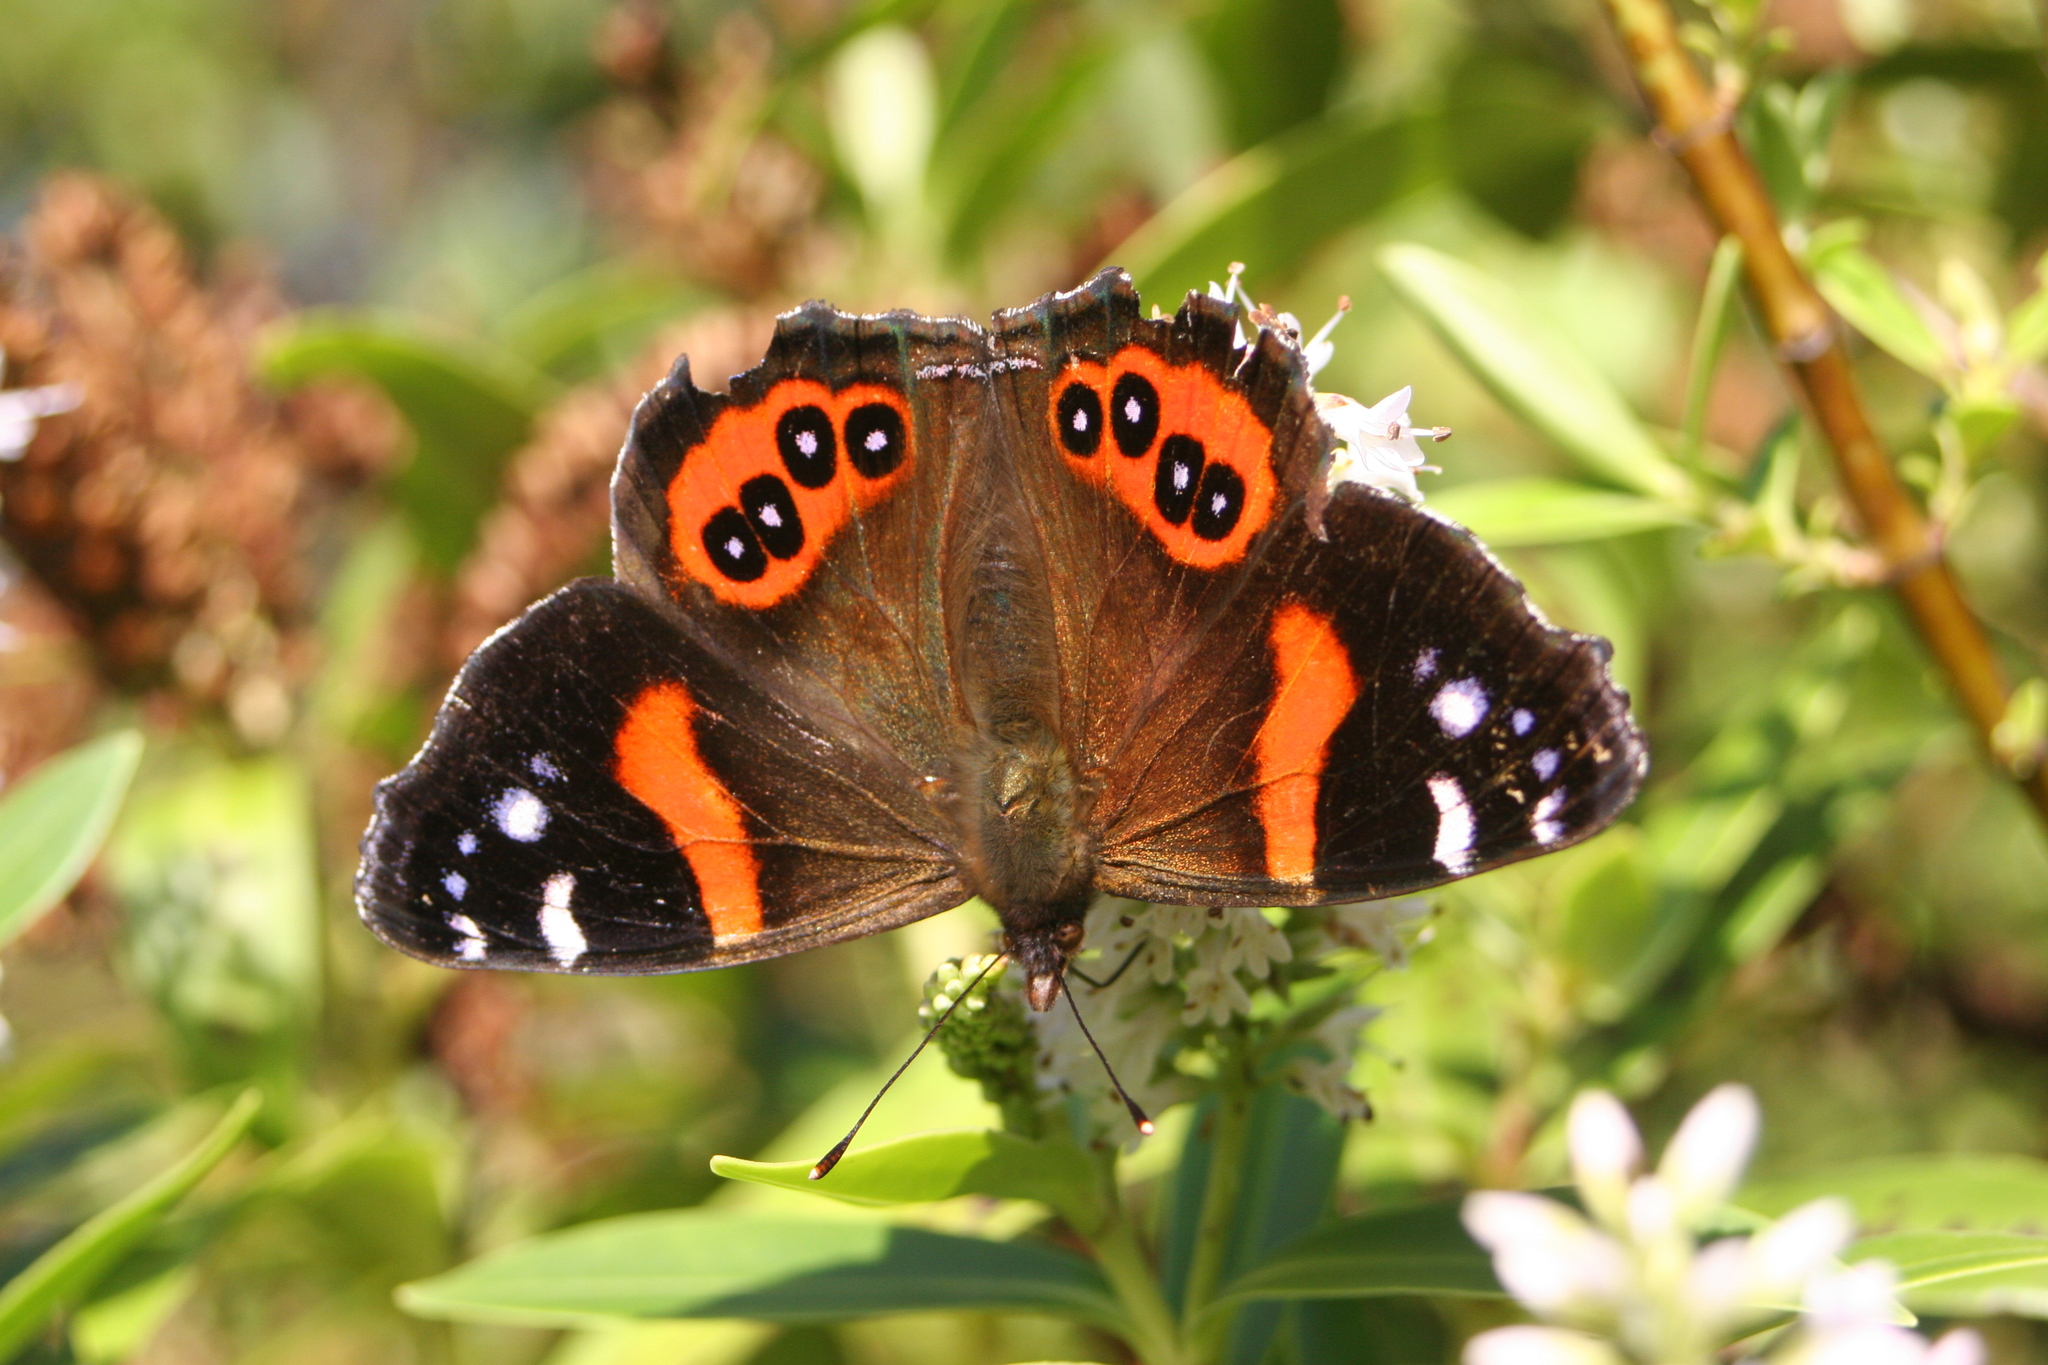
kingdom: Animalia
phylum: Arthropoda
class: Insecta
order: Lepidoptera
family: Nymphalidae
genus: Vanessa
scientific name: Vanessa gonerilla
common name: New zealand red admiral
